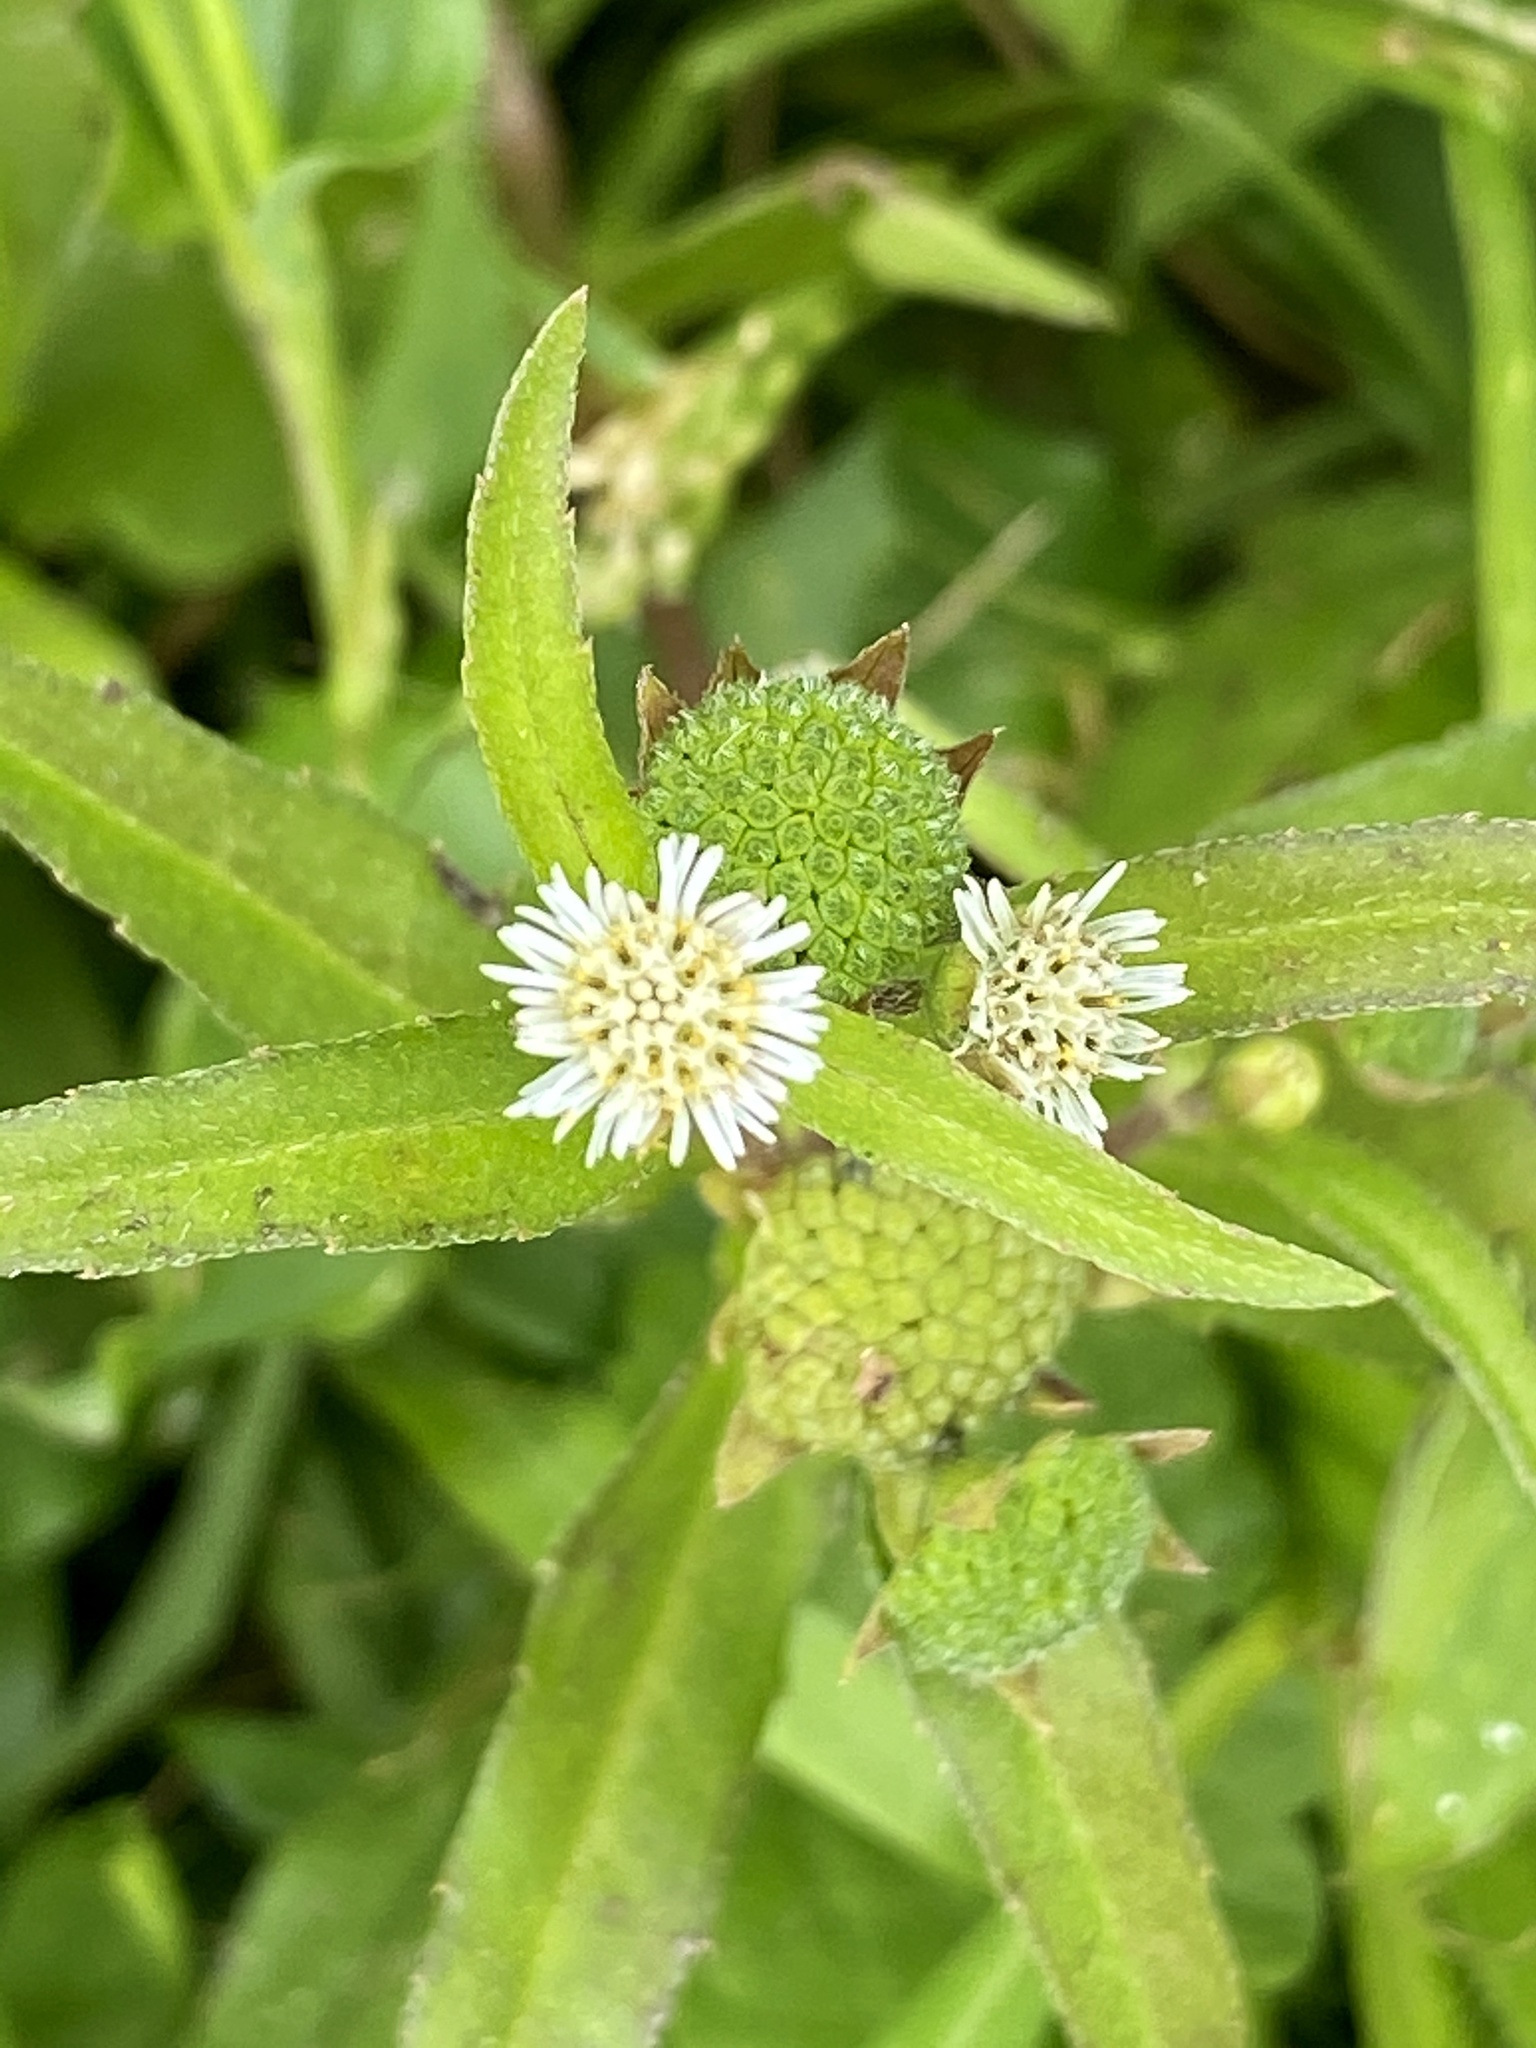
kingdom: Plantae
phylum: Tracheophyta
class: Magnoliopsida
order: Asterales
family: Asteraceae
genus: Eclipta
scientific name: Eclipta prostrata
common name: False daisy
